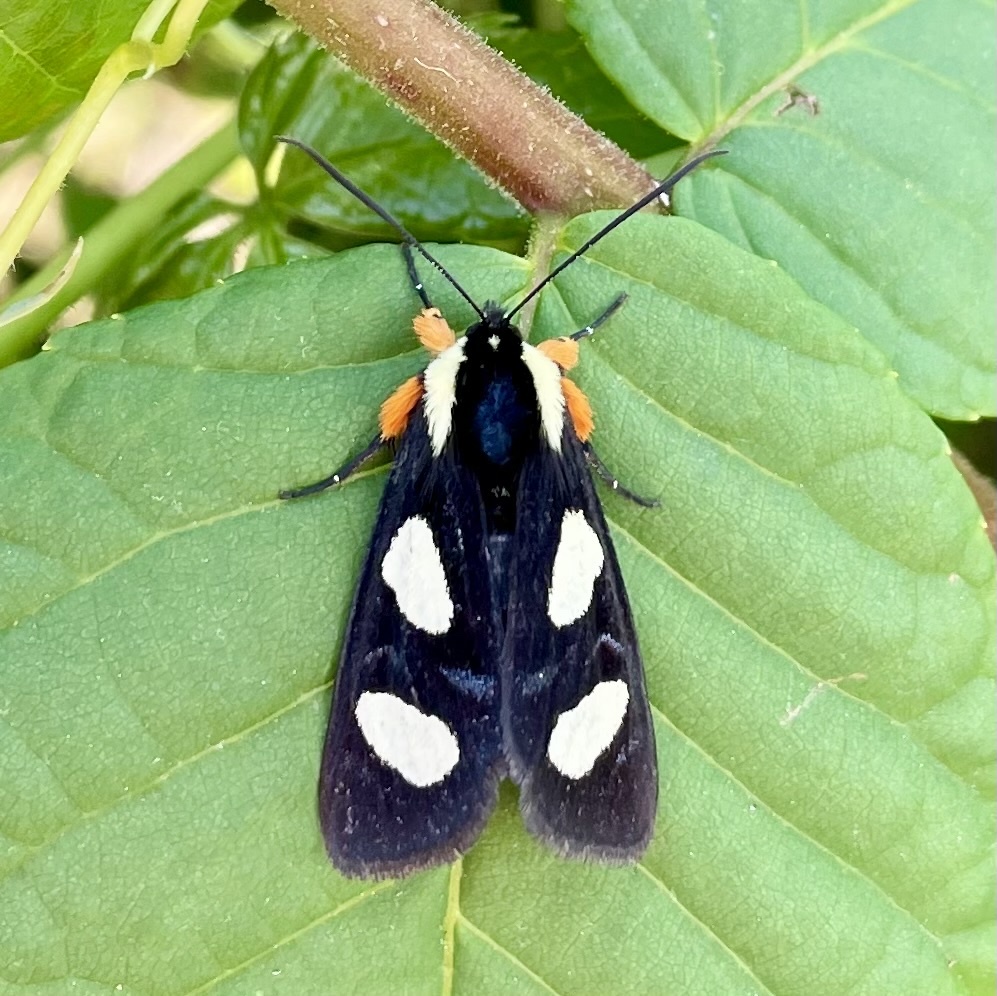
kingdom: Animalia
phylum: Arthropoda
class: Insecta
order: Lepidoptera
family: Noctuidae
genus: Alypia
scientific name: Alypia octomaculata
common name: Eight-spotted forester
